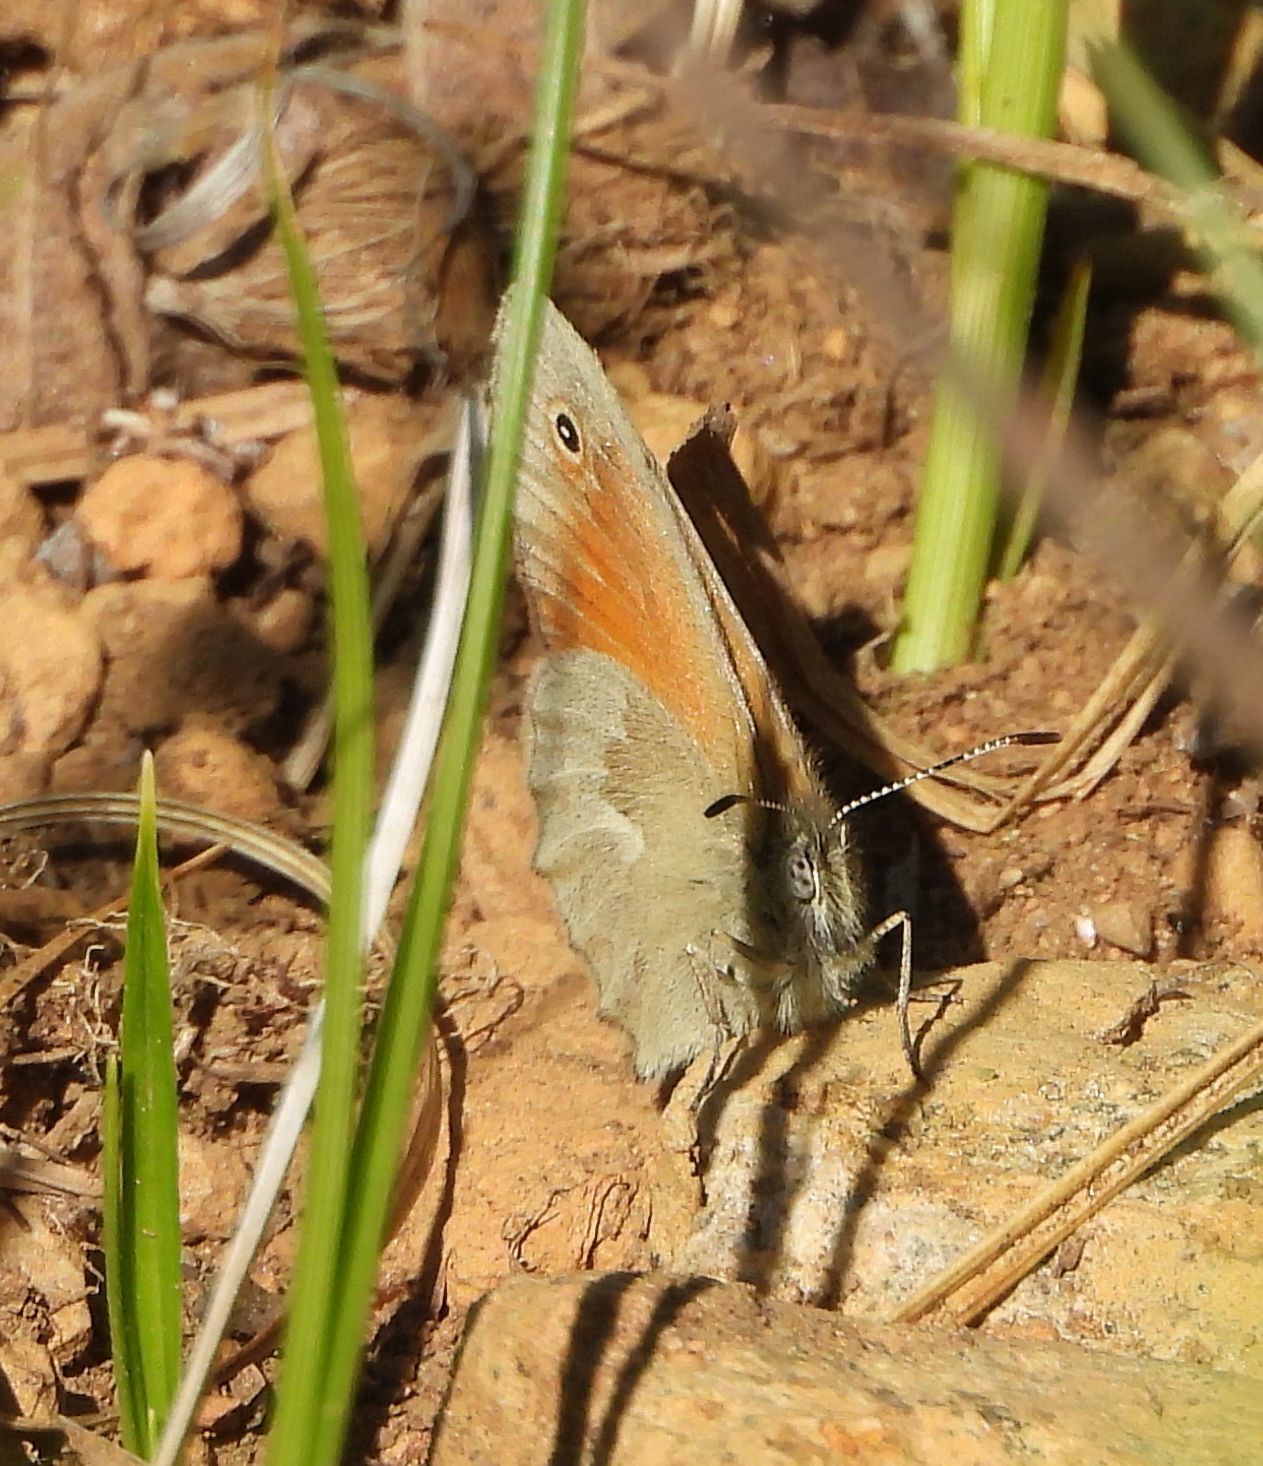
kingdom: Animalia
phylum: Arthropoda
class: Insecta
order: Lepidoptera
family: Nymphalidae
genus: Coenonympha
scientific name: Coenonympha california
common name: Common ringlet
